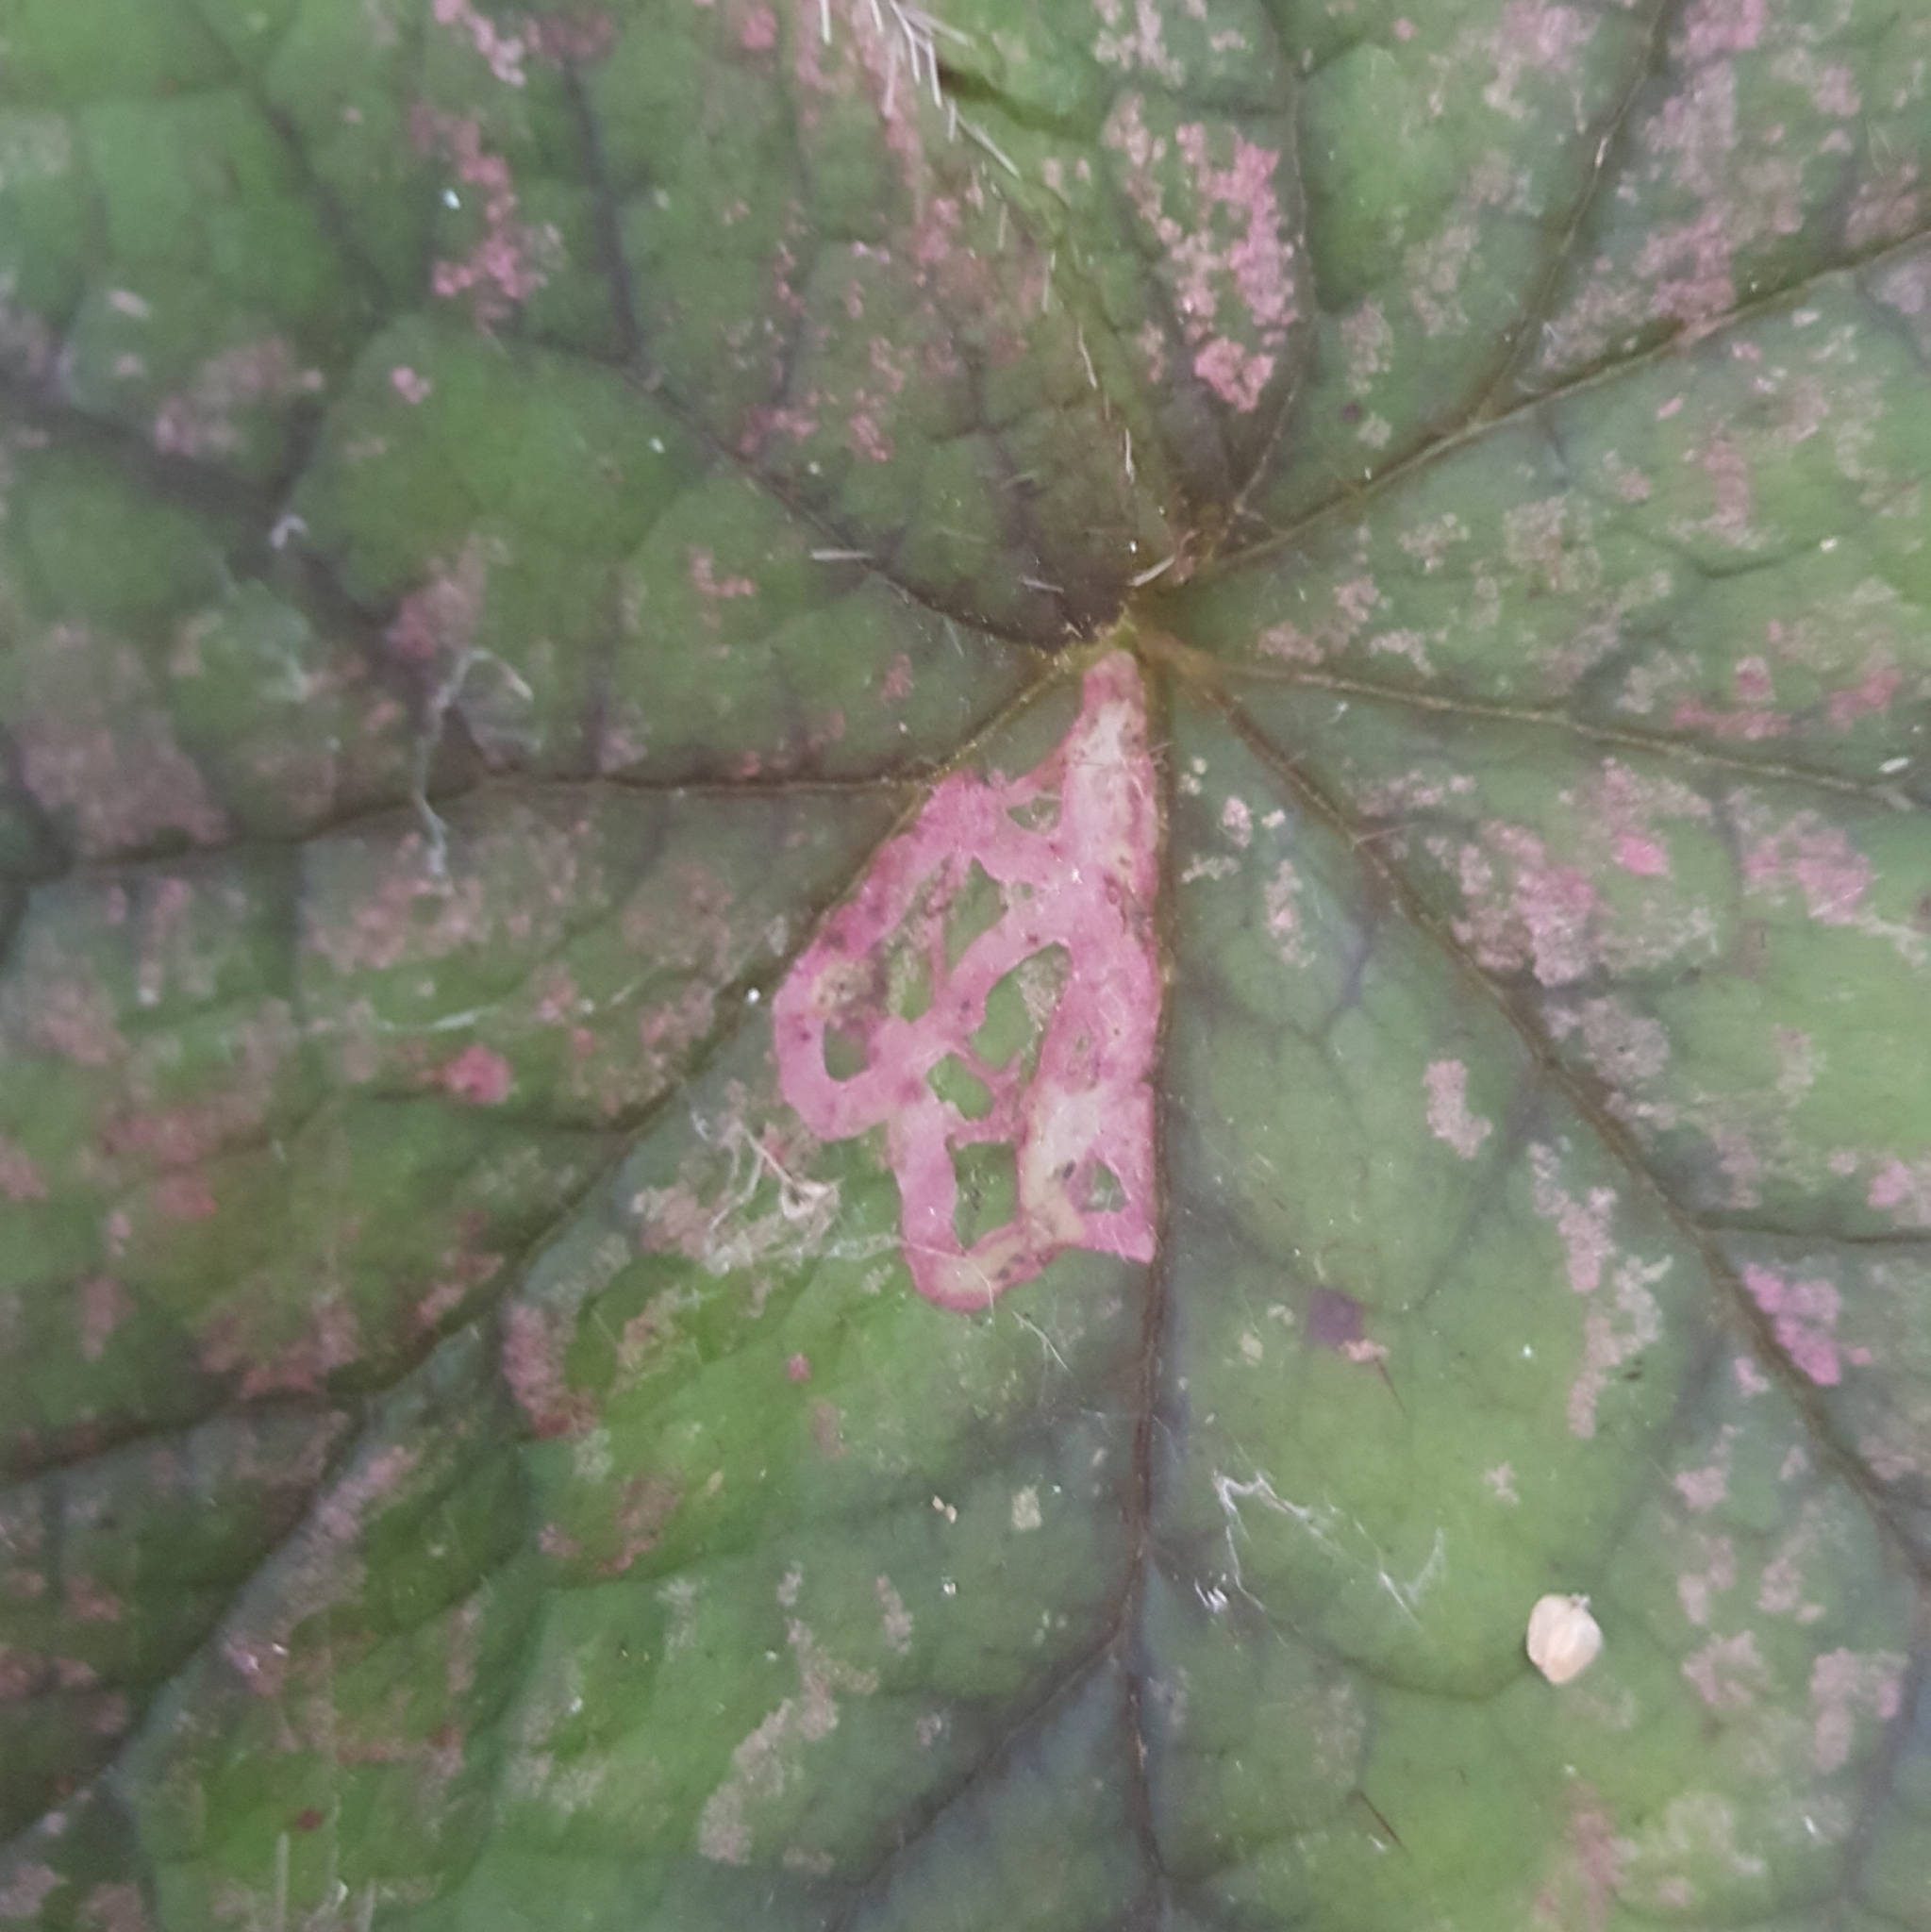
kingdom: Animalia
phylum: Arthropoda
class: Insecta
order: Diptera
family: Agromyzidae
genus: Phytomyza
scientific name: Phytomyza tiarellae
